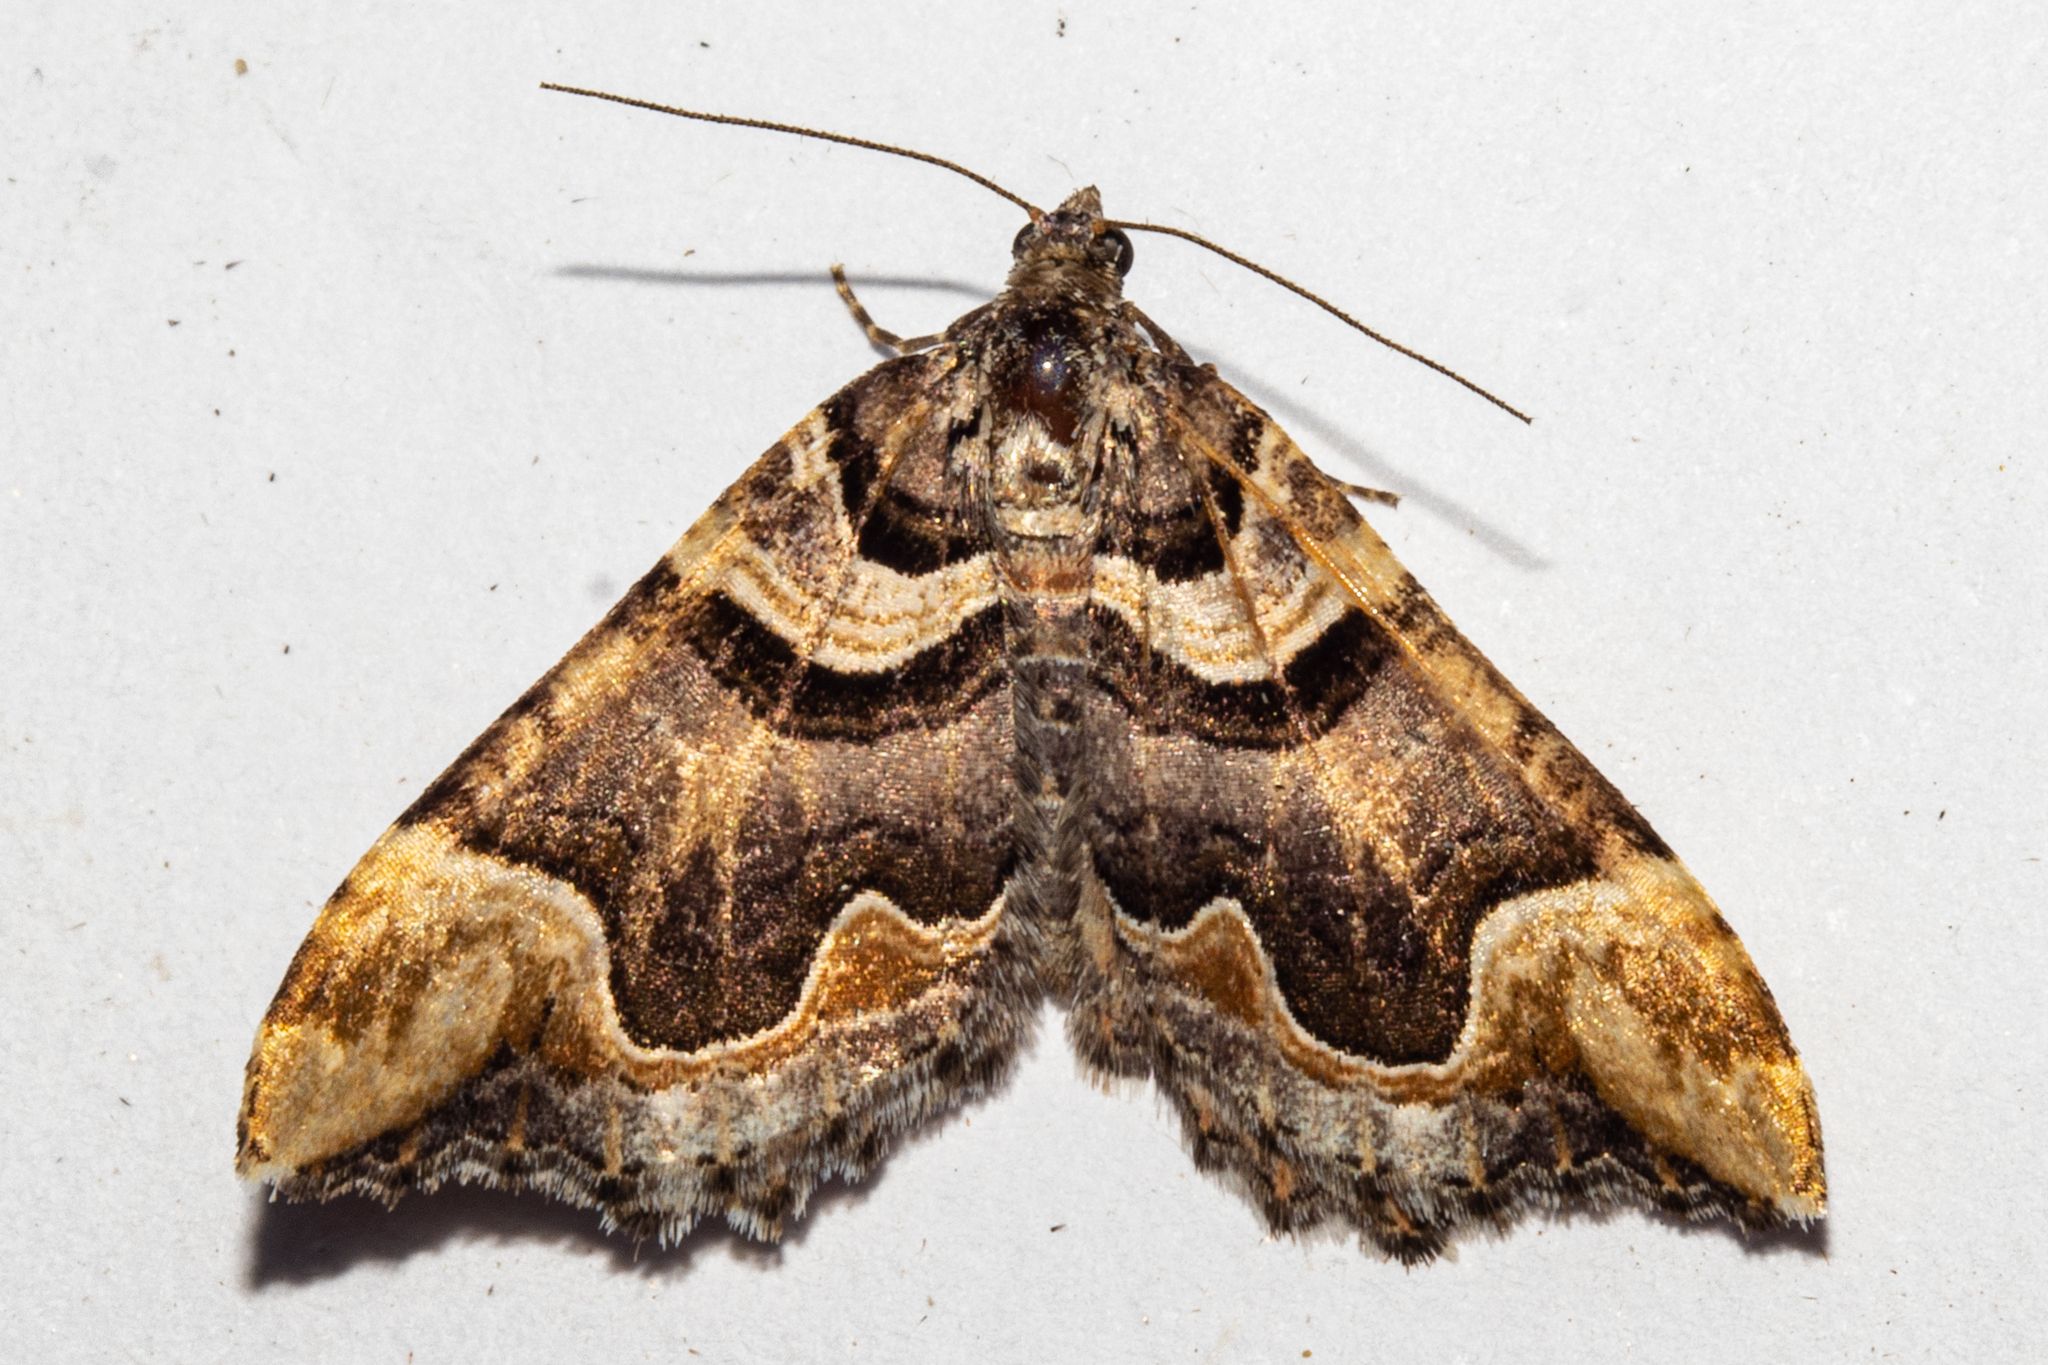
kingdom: Animalia
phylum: Arthropoda
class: Insecta
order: Lepidoptera
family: Geometridae
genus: Asaphodes
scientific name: Asaphodes chlamydota
